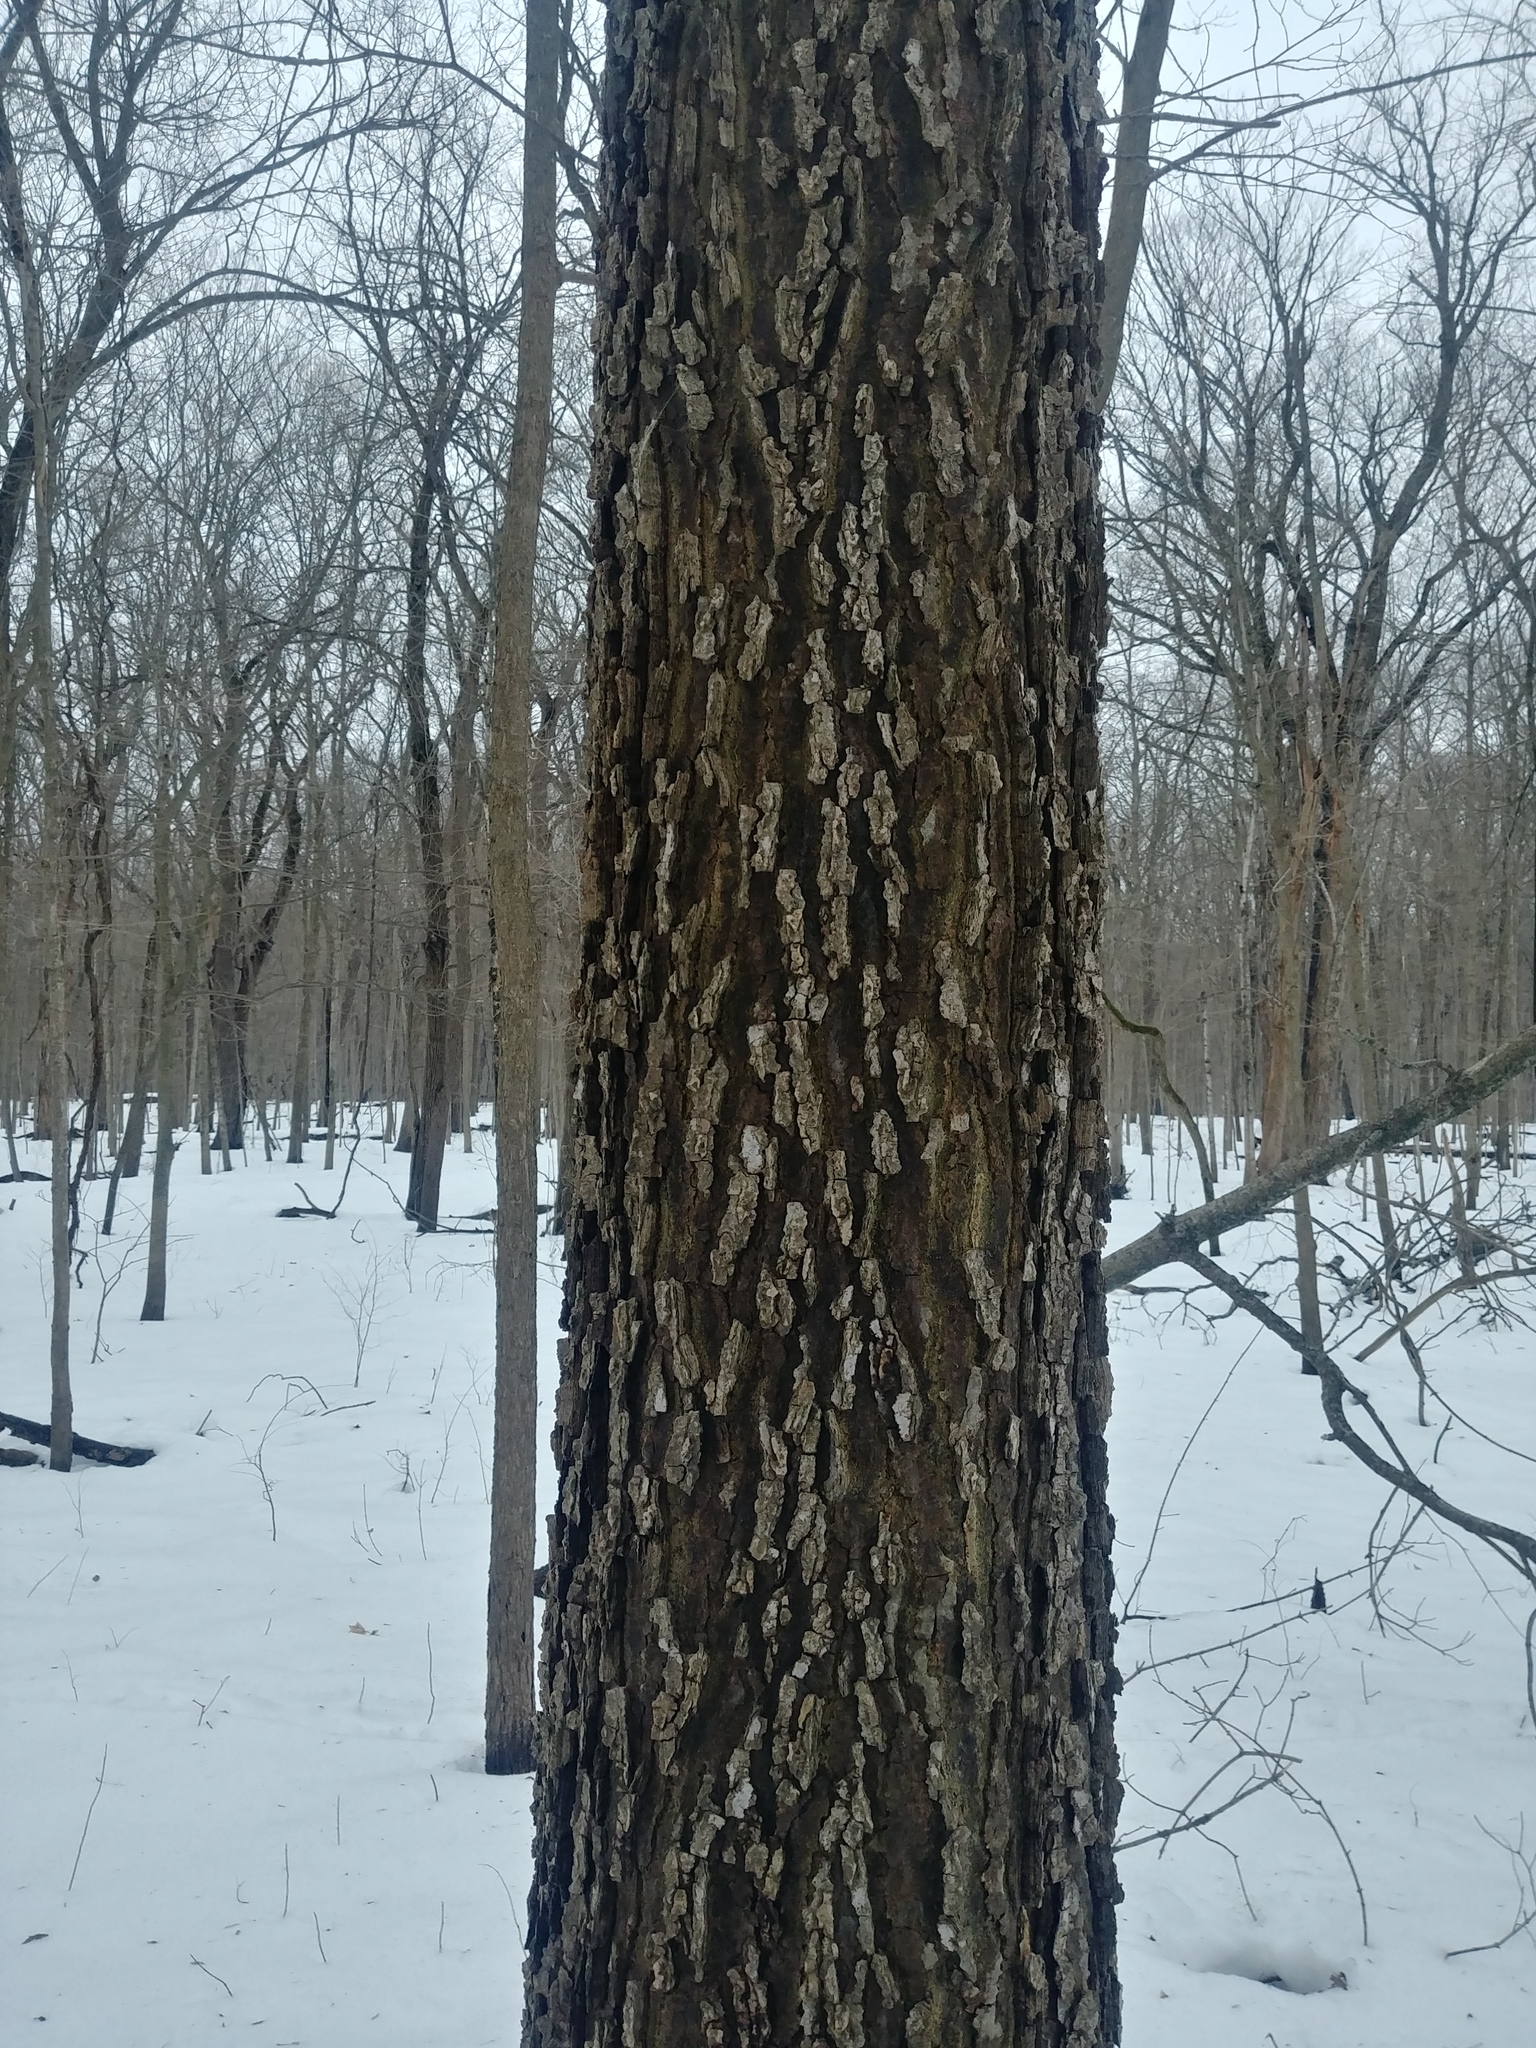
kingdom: Plantae
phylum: Tracheophyta
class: Magnoliopsida
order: Rosales
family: Cannabaceae
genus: Celtis
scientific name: Celtis occidentalis
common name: Common hackberry
